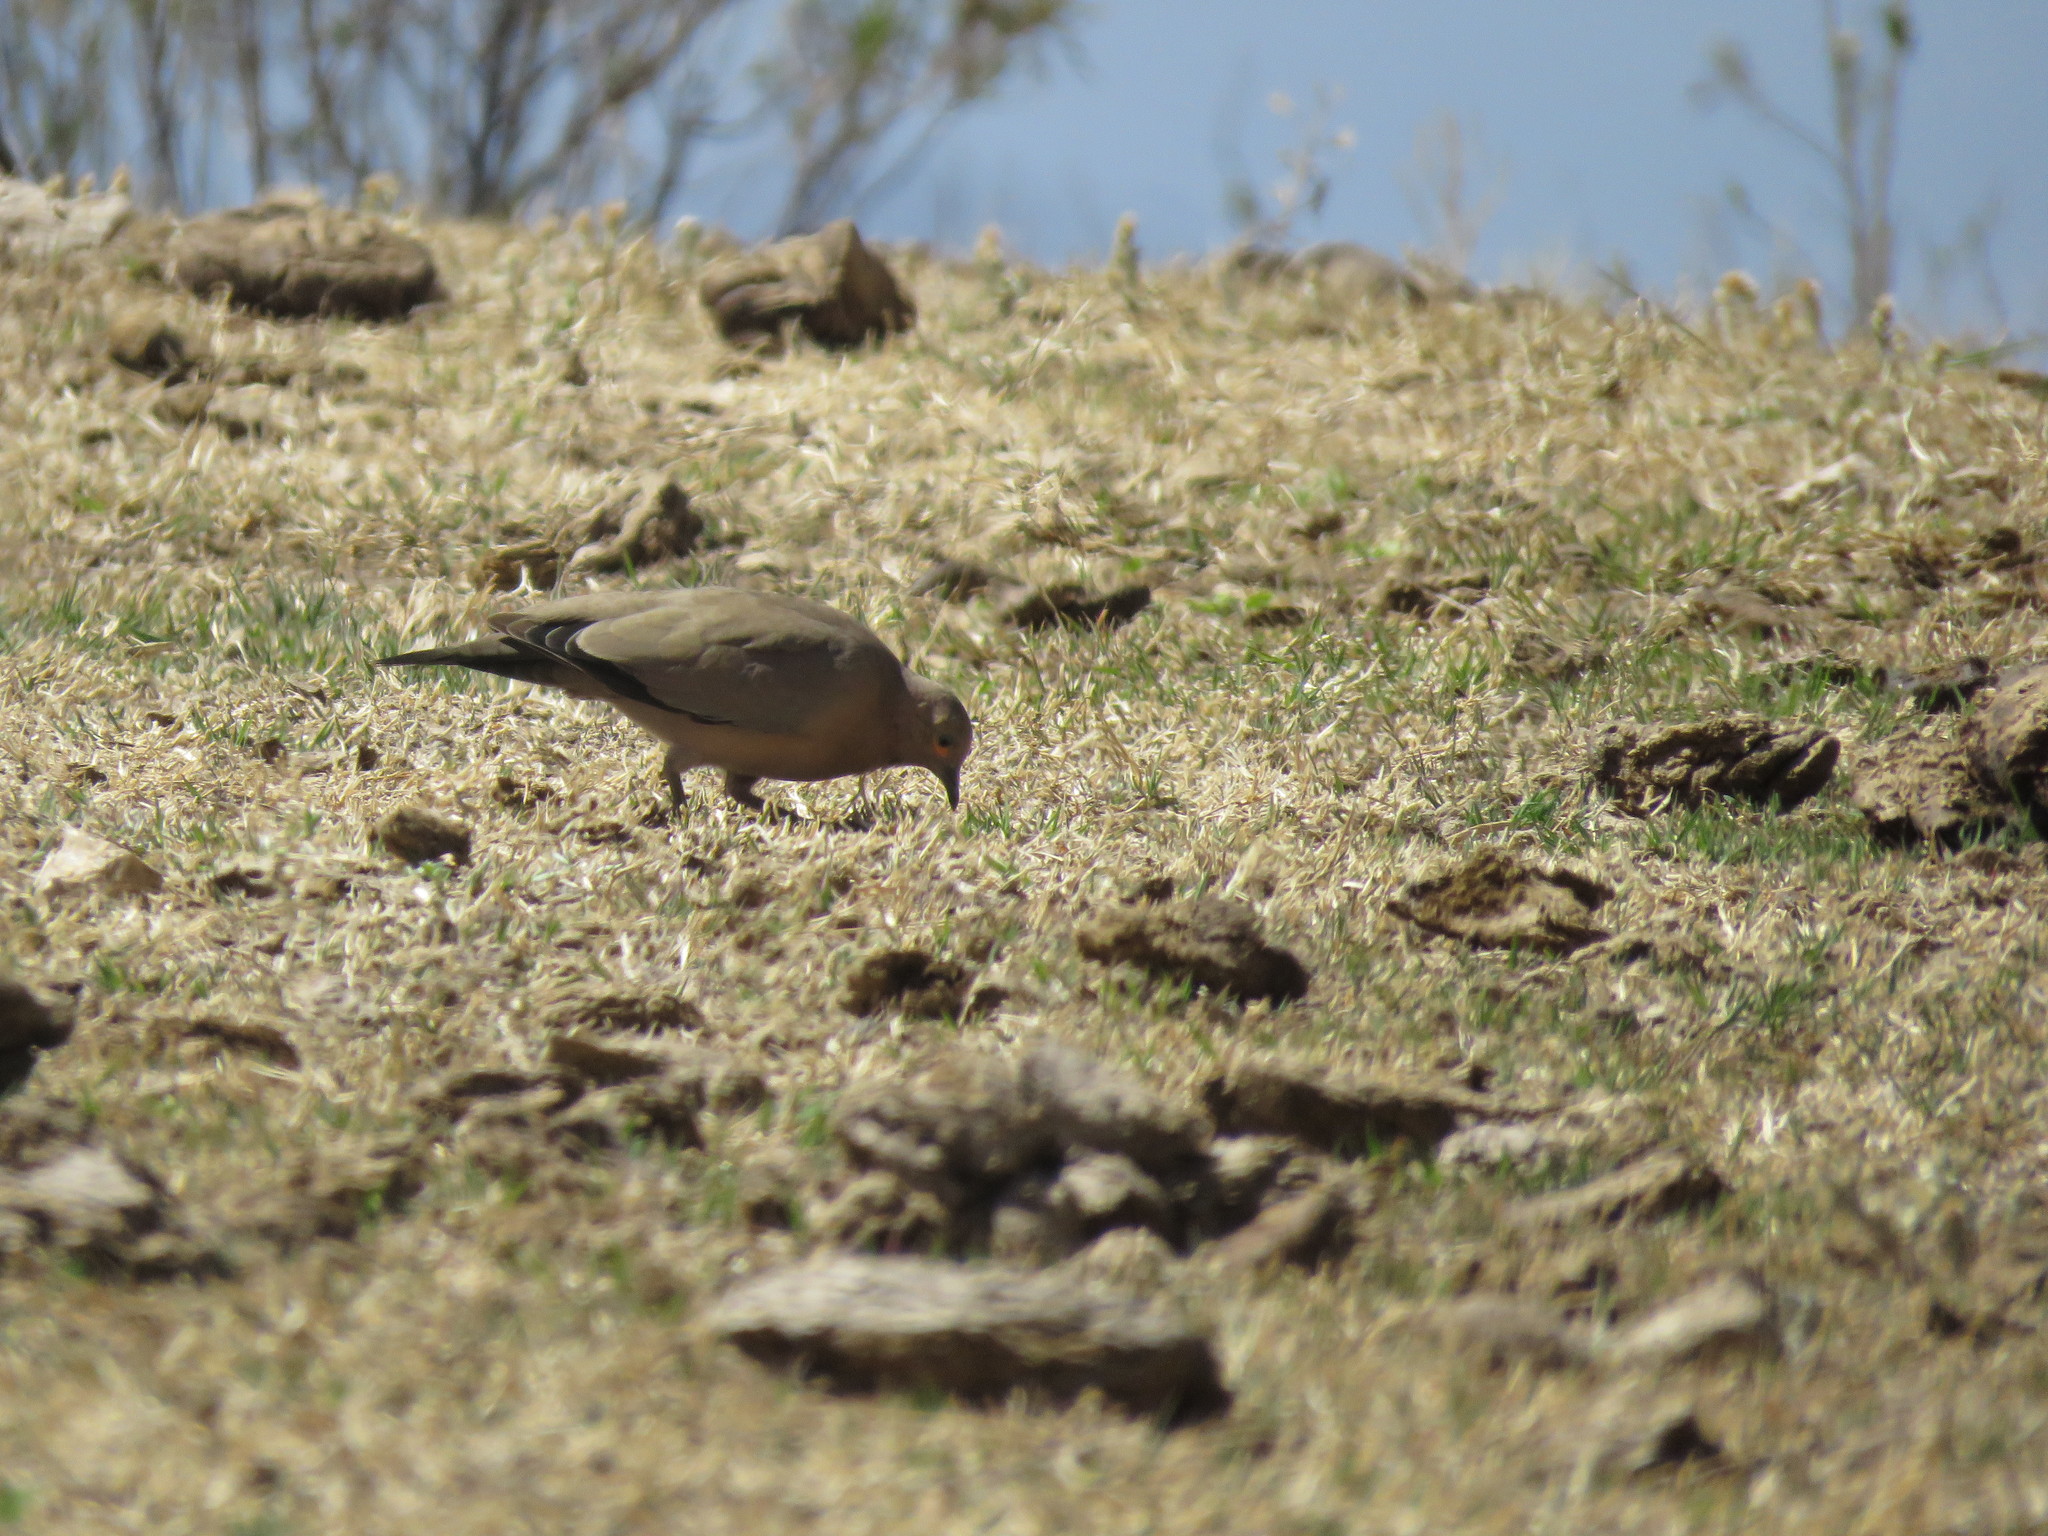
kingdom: Animalia
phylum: Chordata
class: Aves
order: Columbiformes
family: Columbidae
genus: Metriopelia
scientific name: Metriopelia melanoptera
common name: Black-winged ground dove
